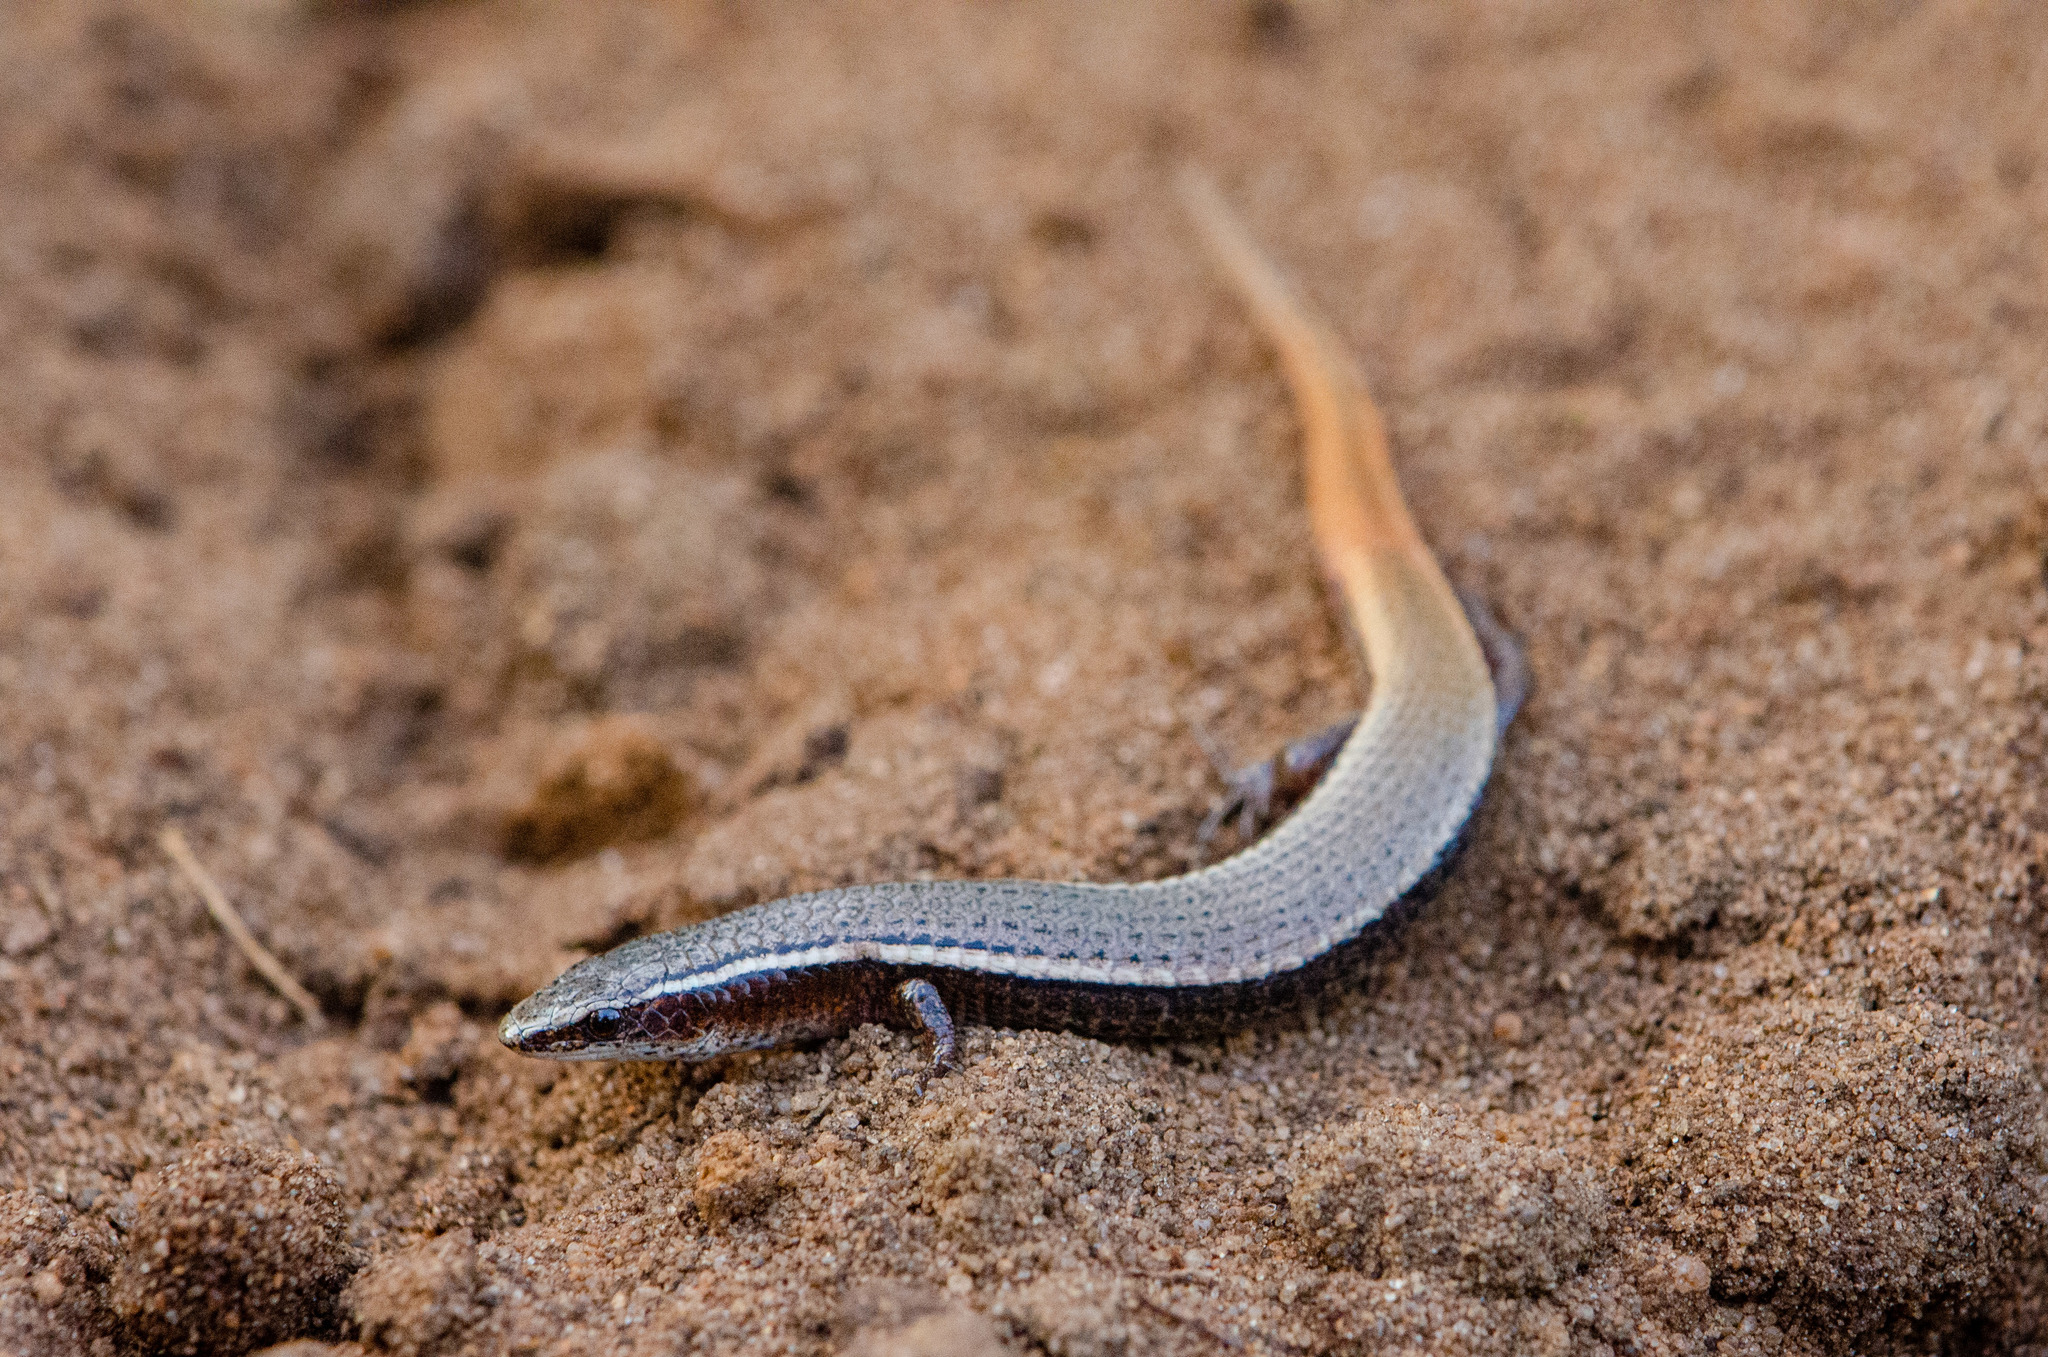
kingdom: Animalia
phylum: Chordata
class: Squamata
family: Gymnophthalmidae
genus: Procellosaurinus
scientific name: Procellosaurinus erythrocercus
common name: Rodrigues' red teiid
